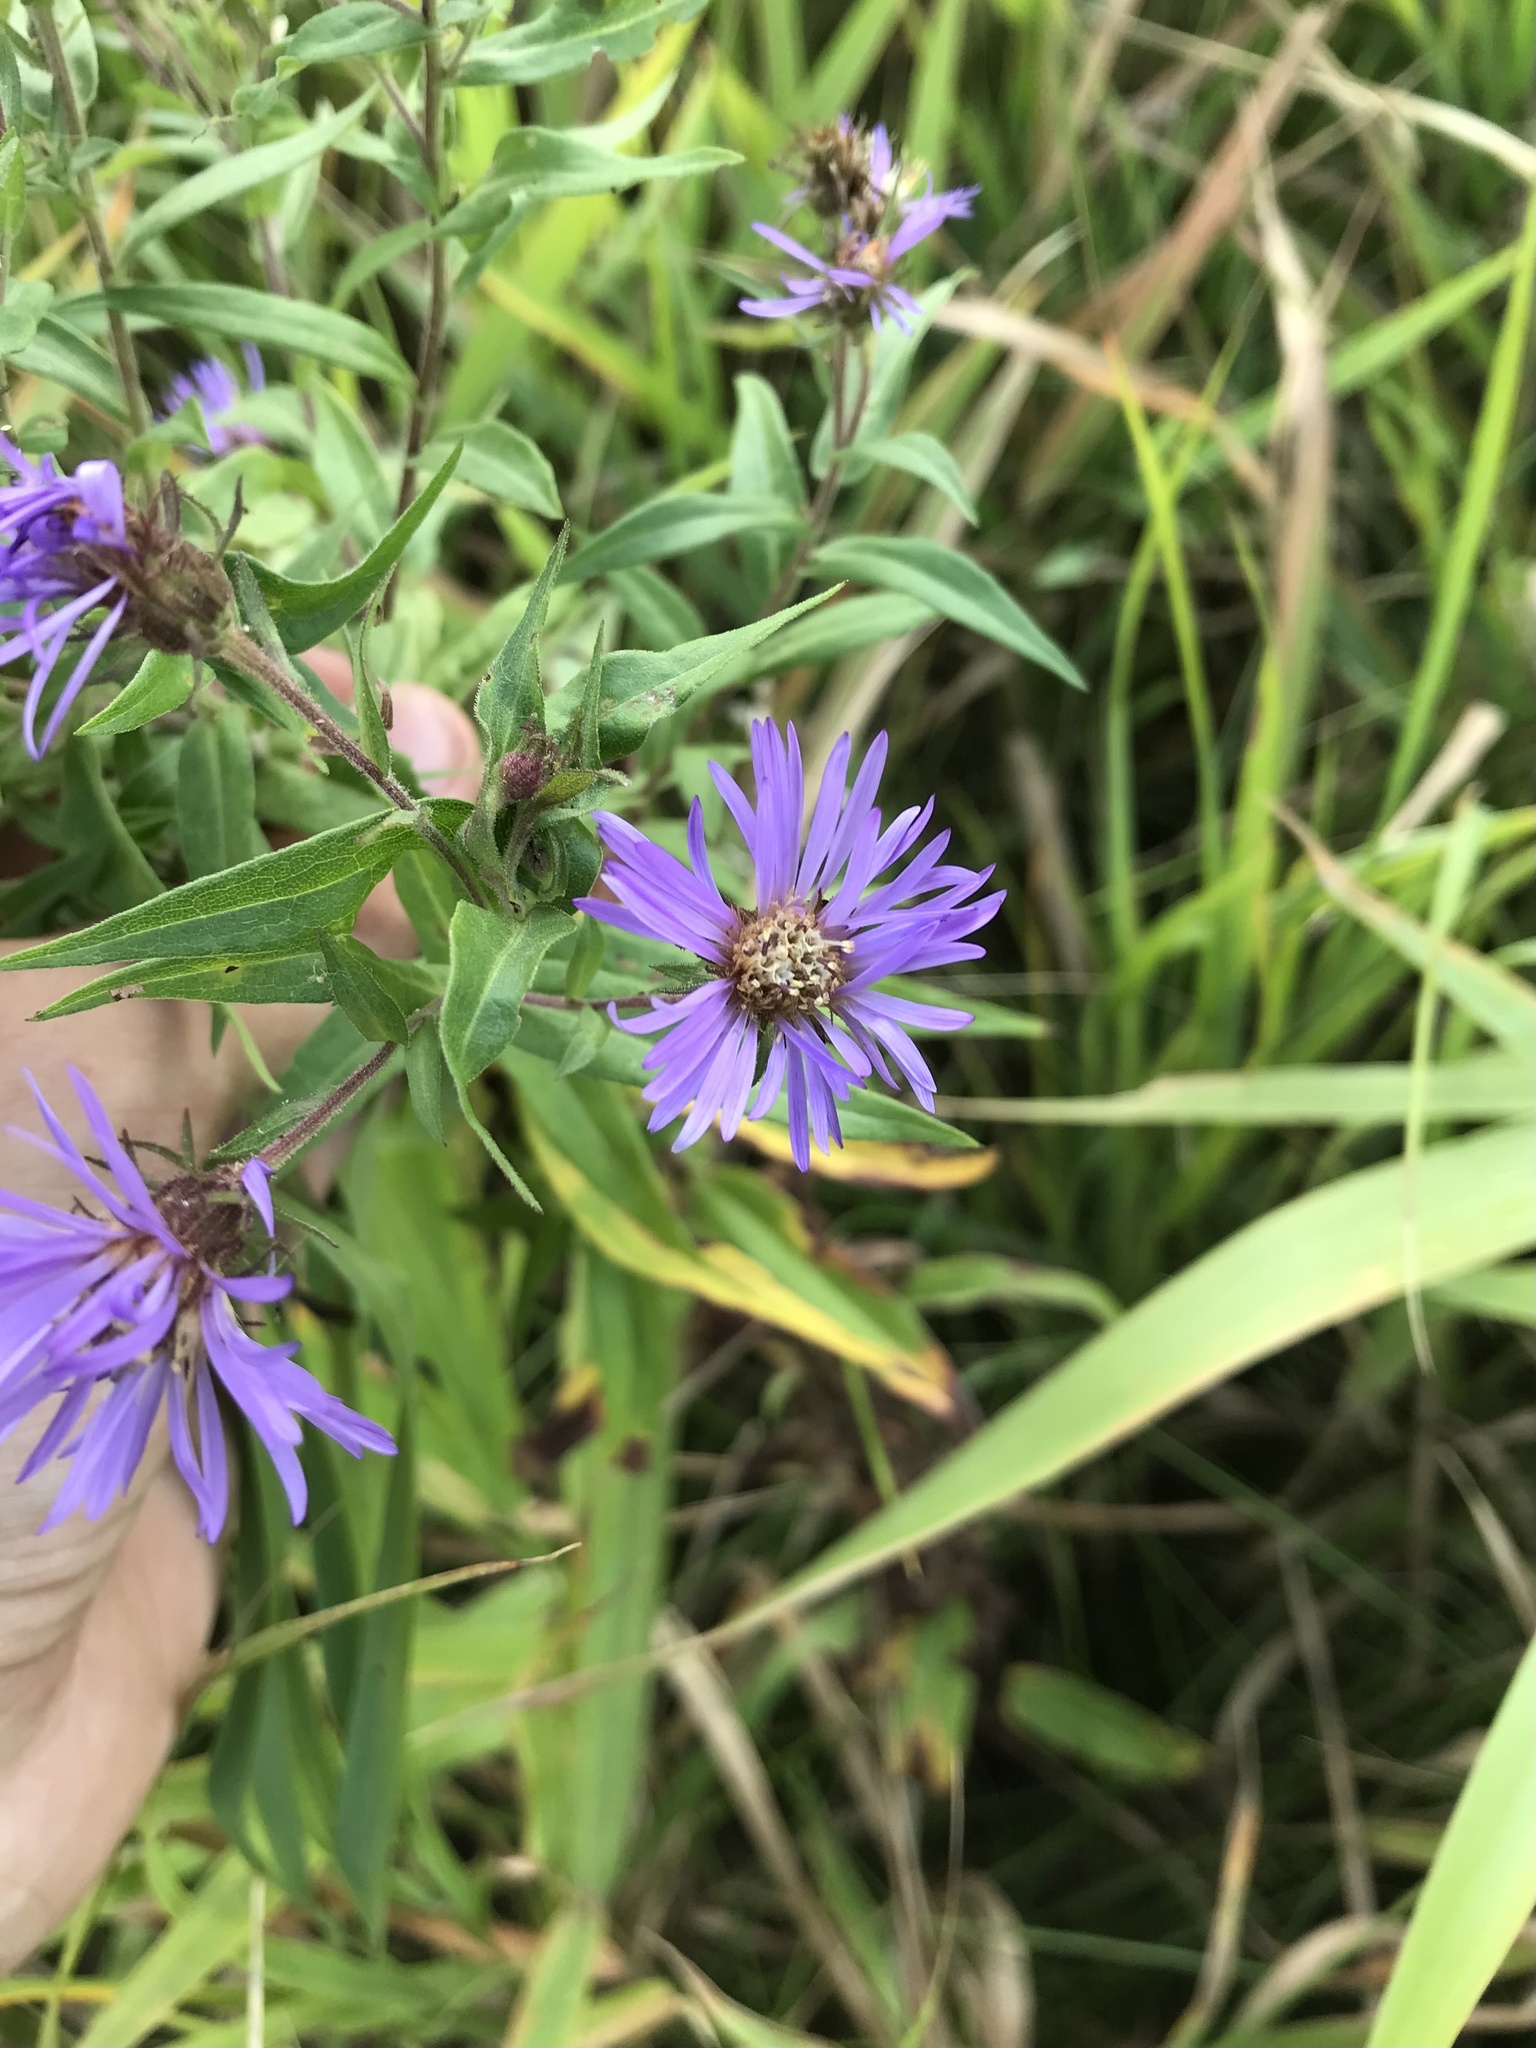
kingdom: Plantae
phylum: Tracheophyta
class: Magnoliopsida
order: Asterales
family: Asteraceae
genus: Canadanthus
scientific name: Canadanthus modestus
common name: Great northern aster
